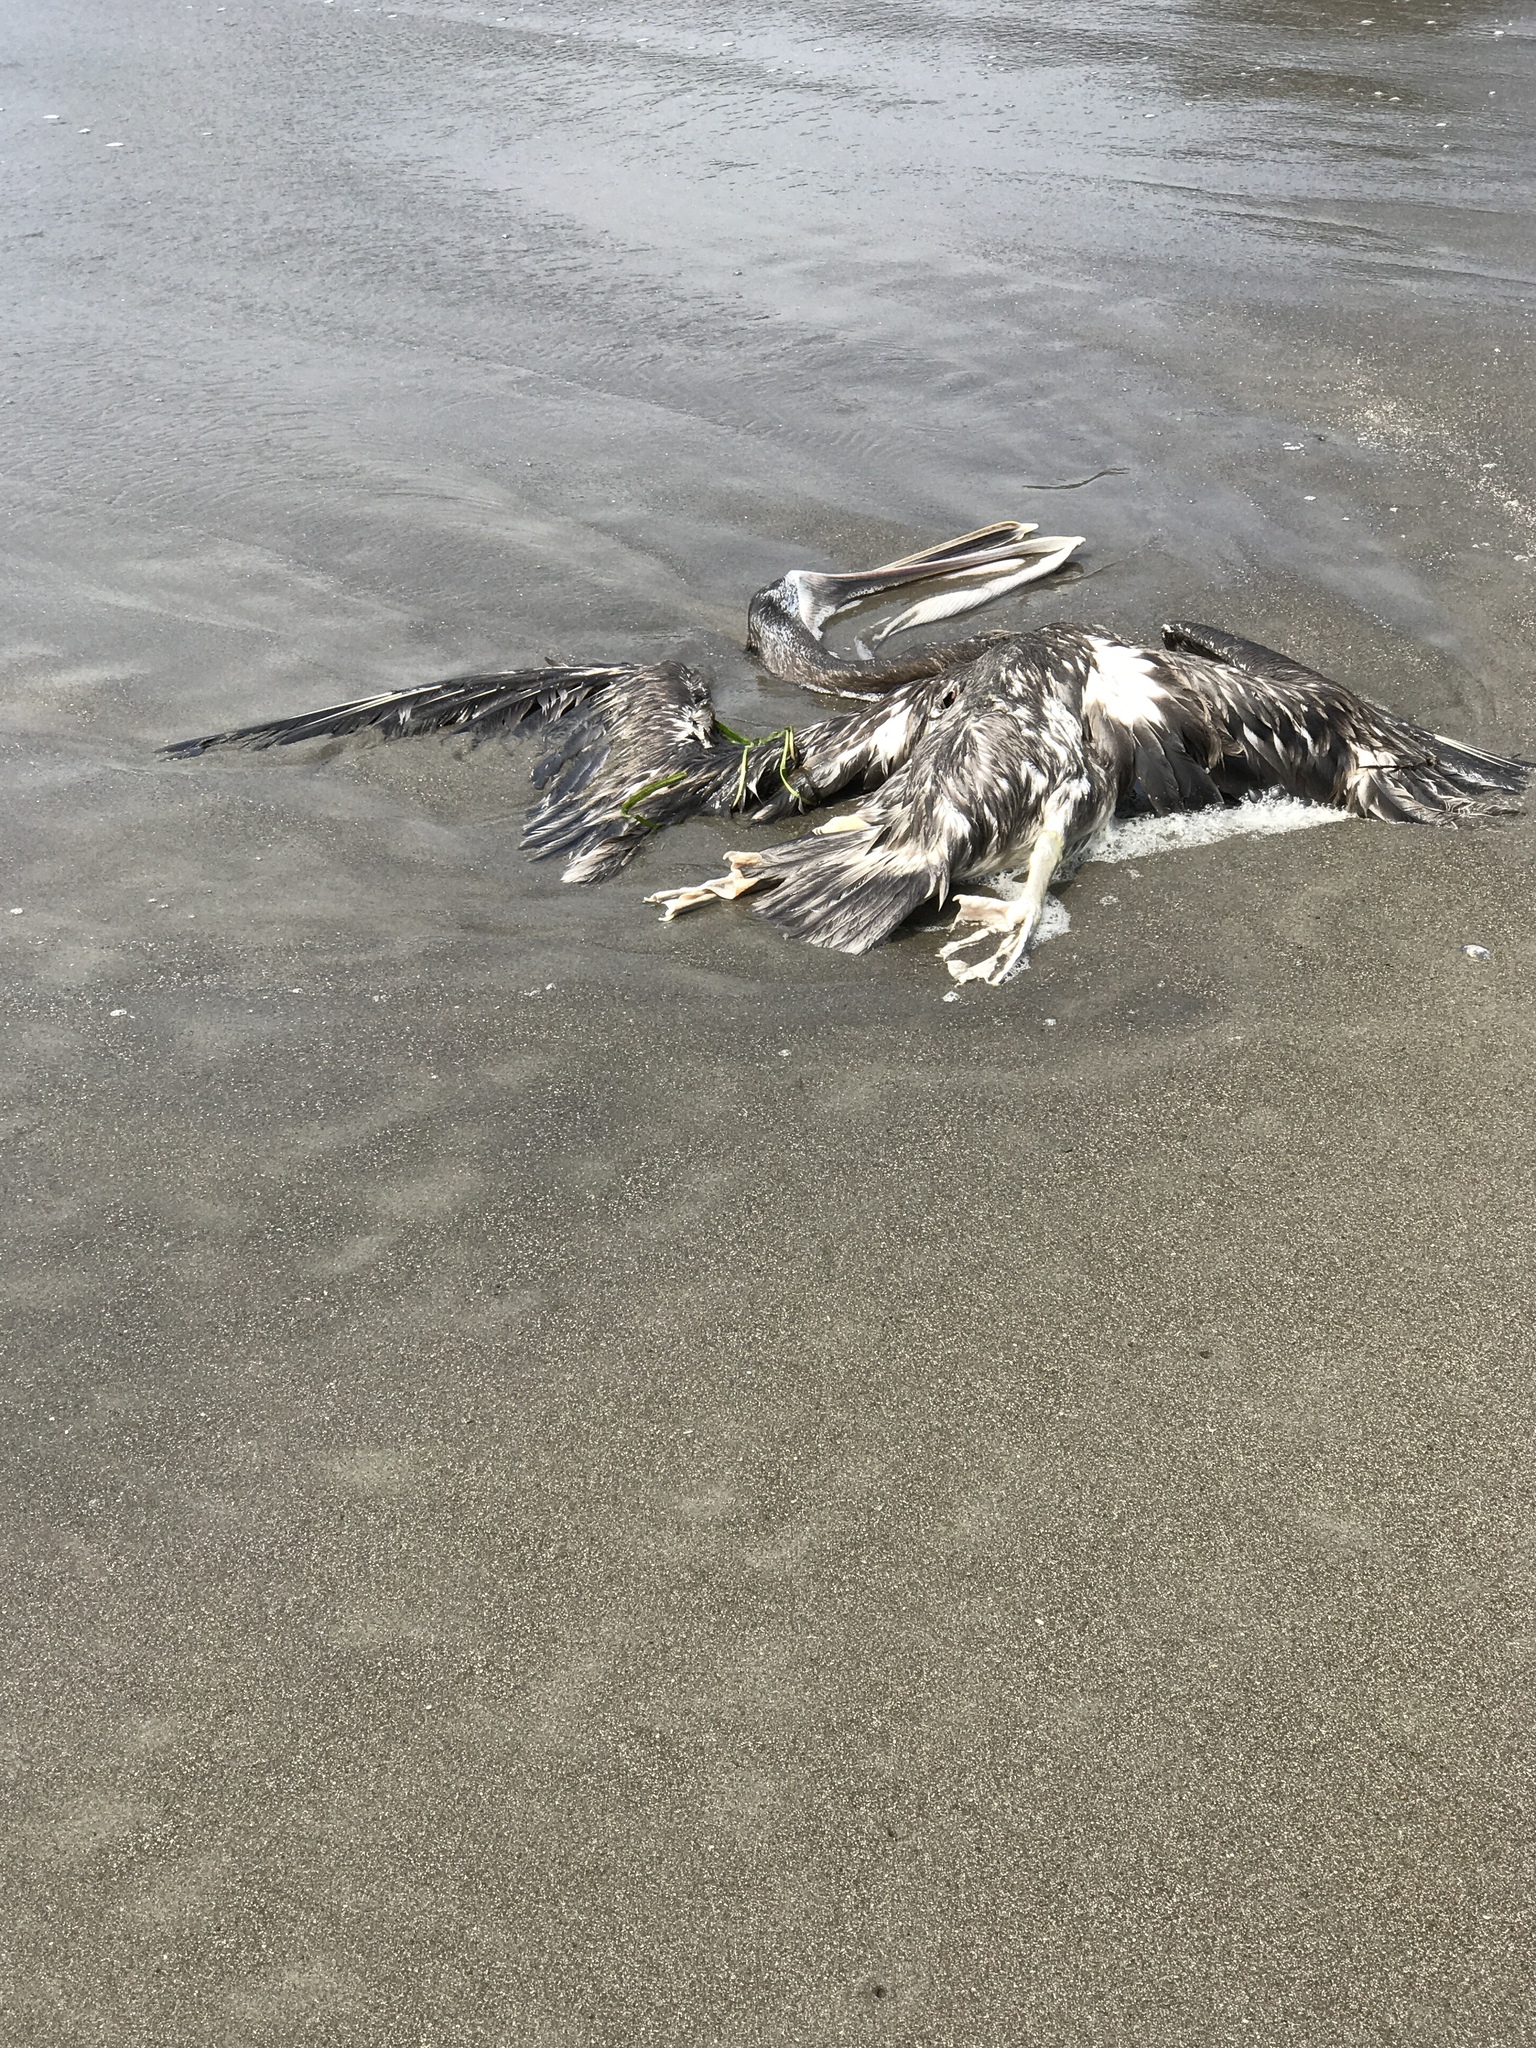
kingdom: Animalia
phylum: Chordata
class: Aves
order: Pelecaniformes
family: Pelecanidae
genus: Pelecanus
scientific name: Pelecanus occidentalis
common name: Brown pelican
